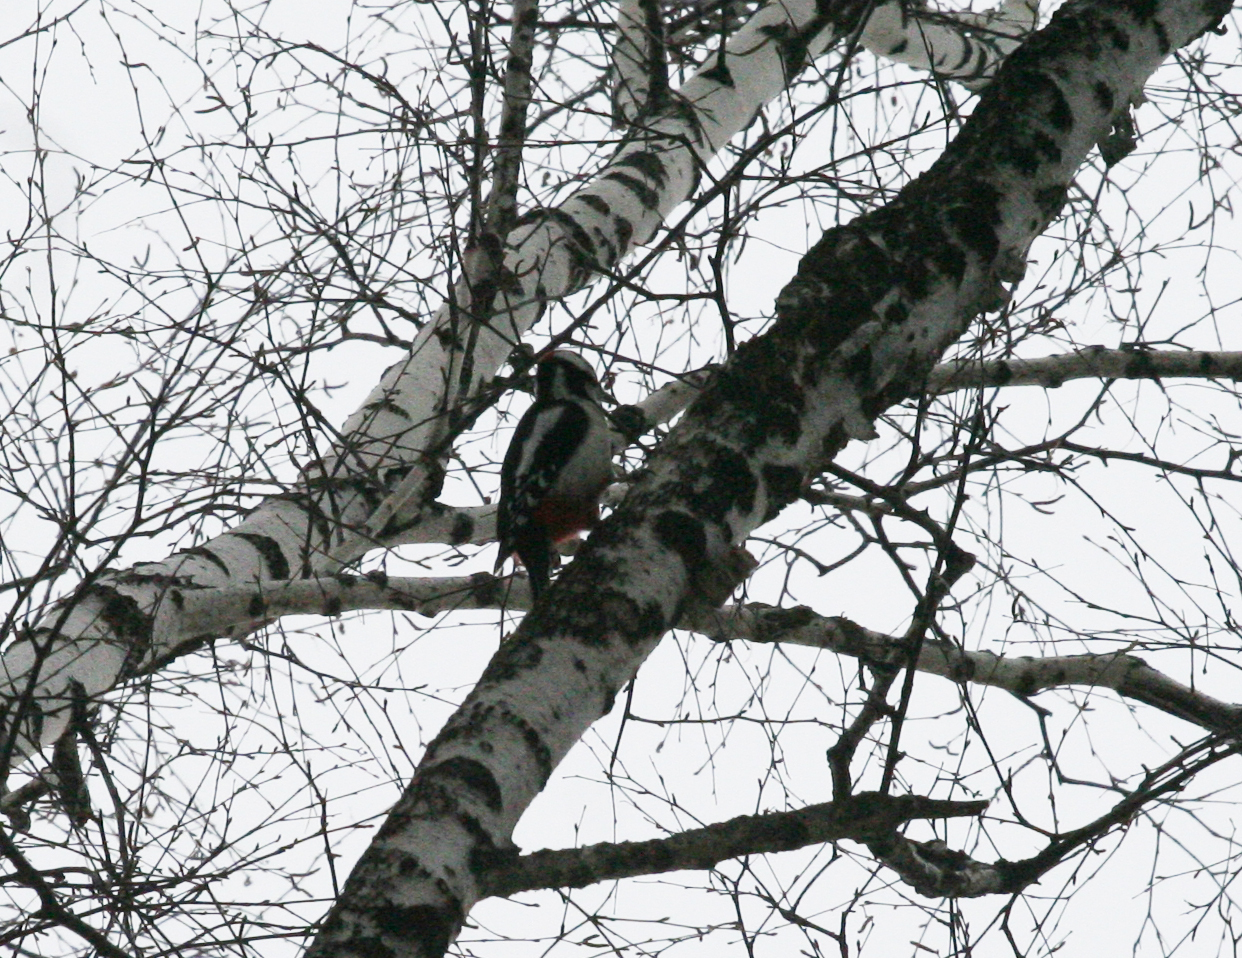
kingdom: Animalia
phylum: Chordata
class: Aves
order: Piciformes
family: Picidae
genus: Dendrocopos
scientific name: Dendrocopos major
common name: Great spotted woodpecker
